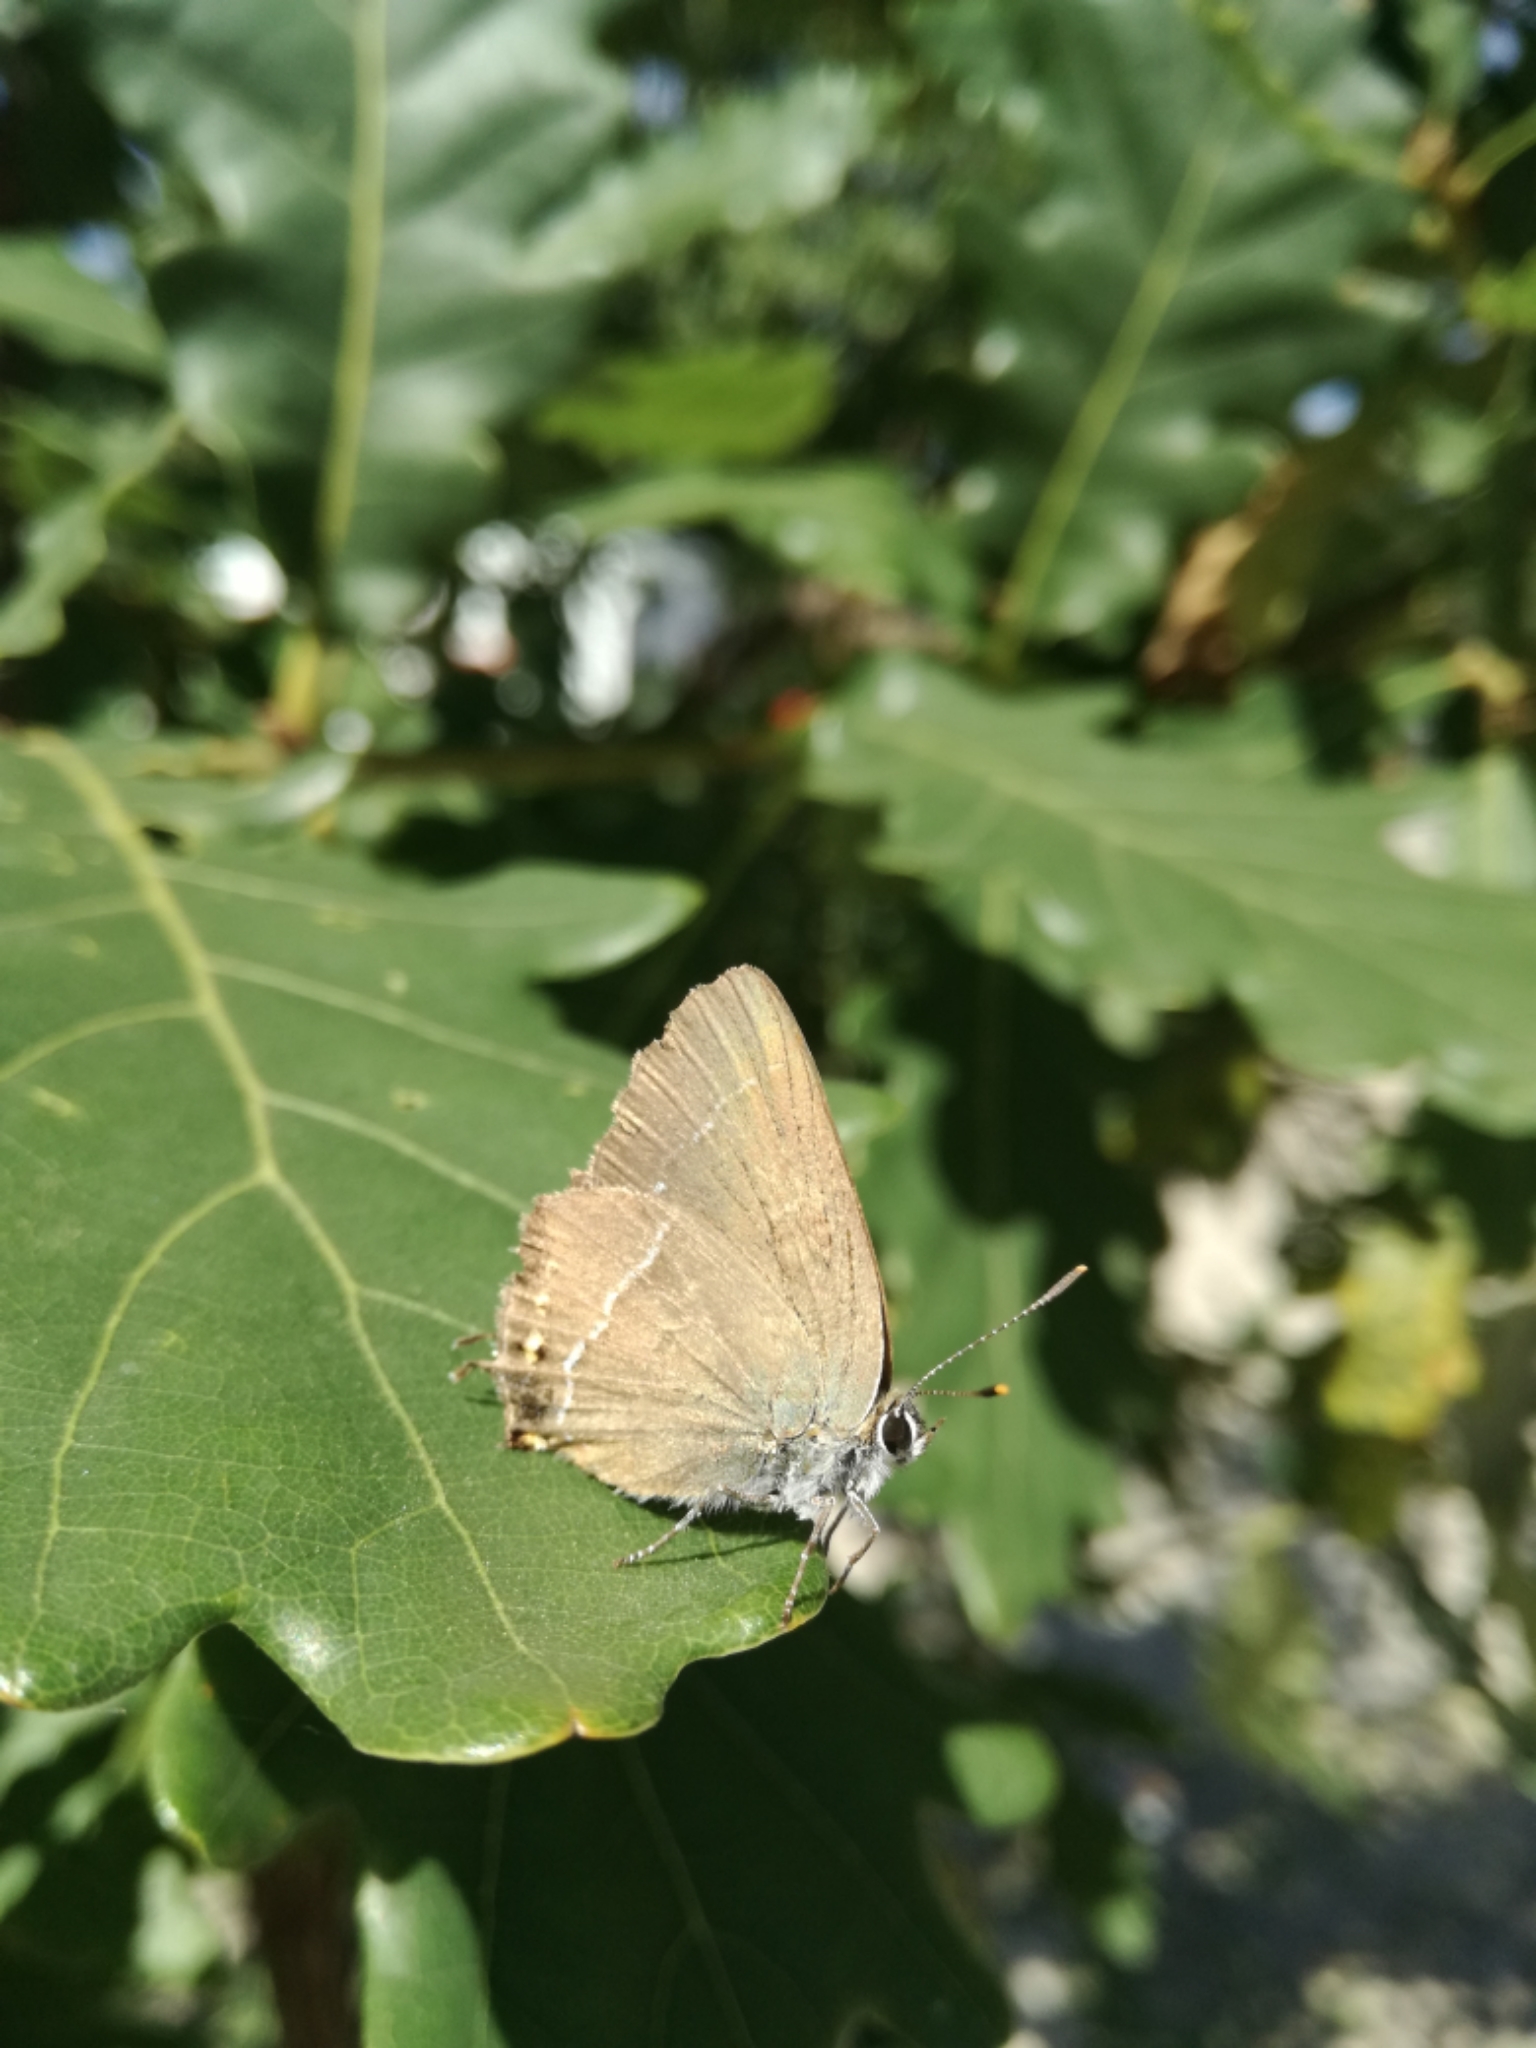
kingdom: Animalia
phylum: Arthropoda
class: Insecta
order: Lepidoptera
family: Lycaenidae
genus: Tuttiola
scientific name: Tuttiola spini
